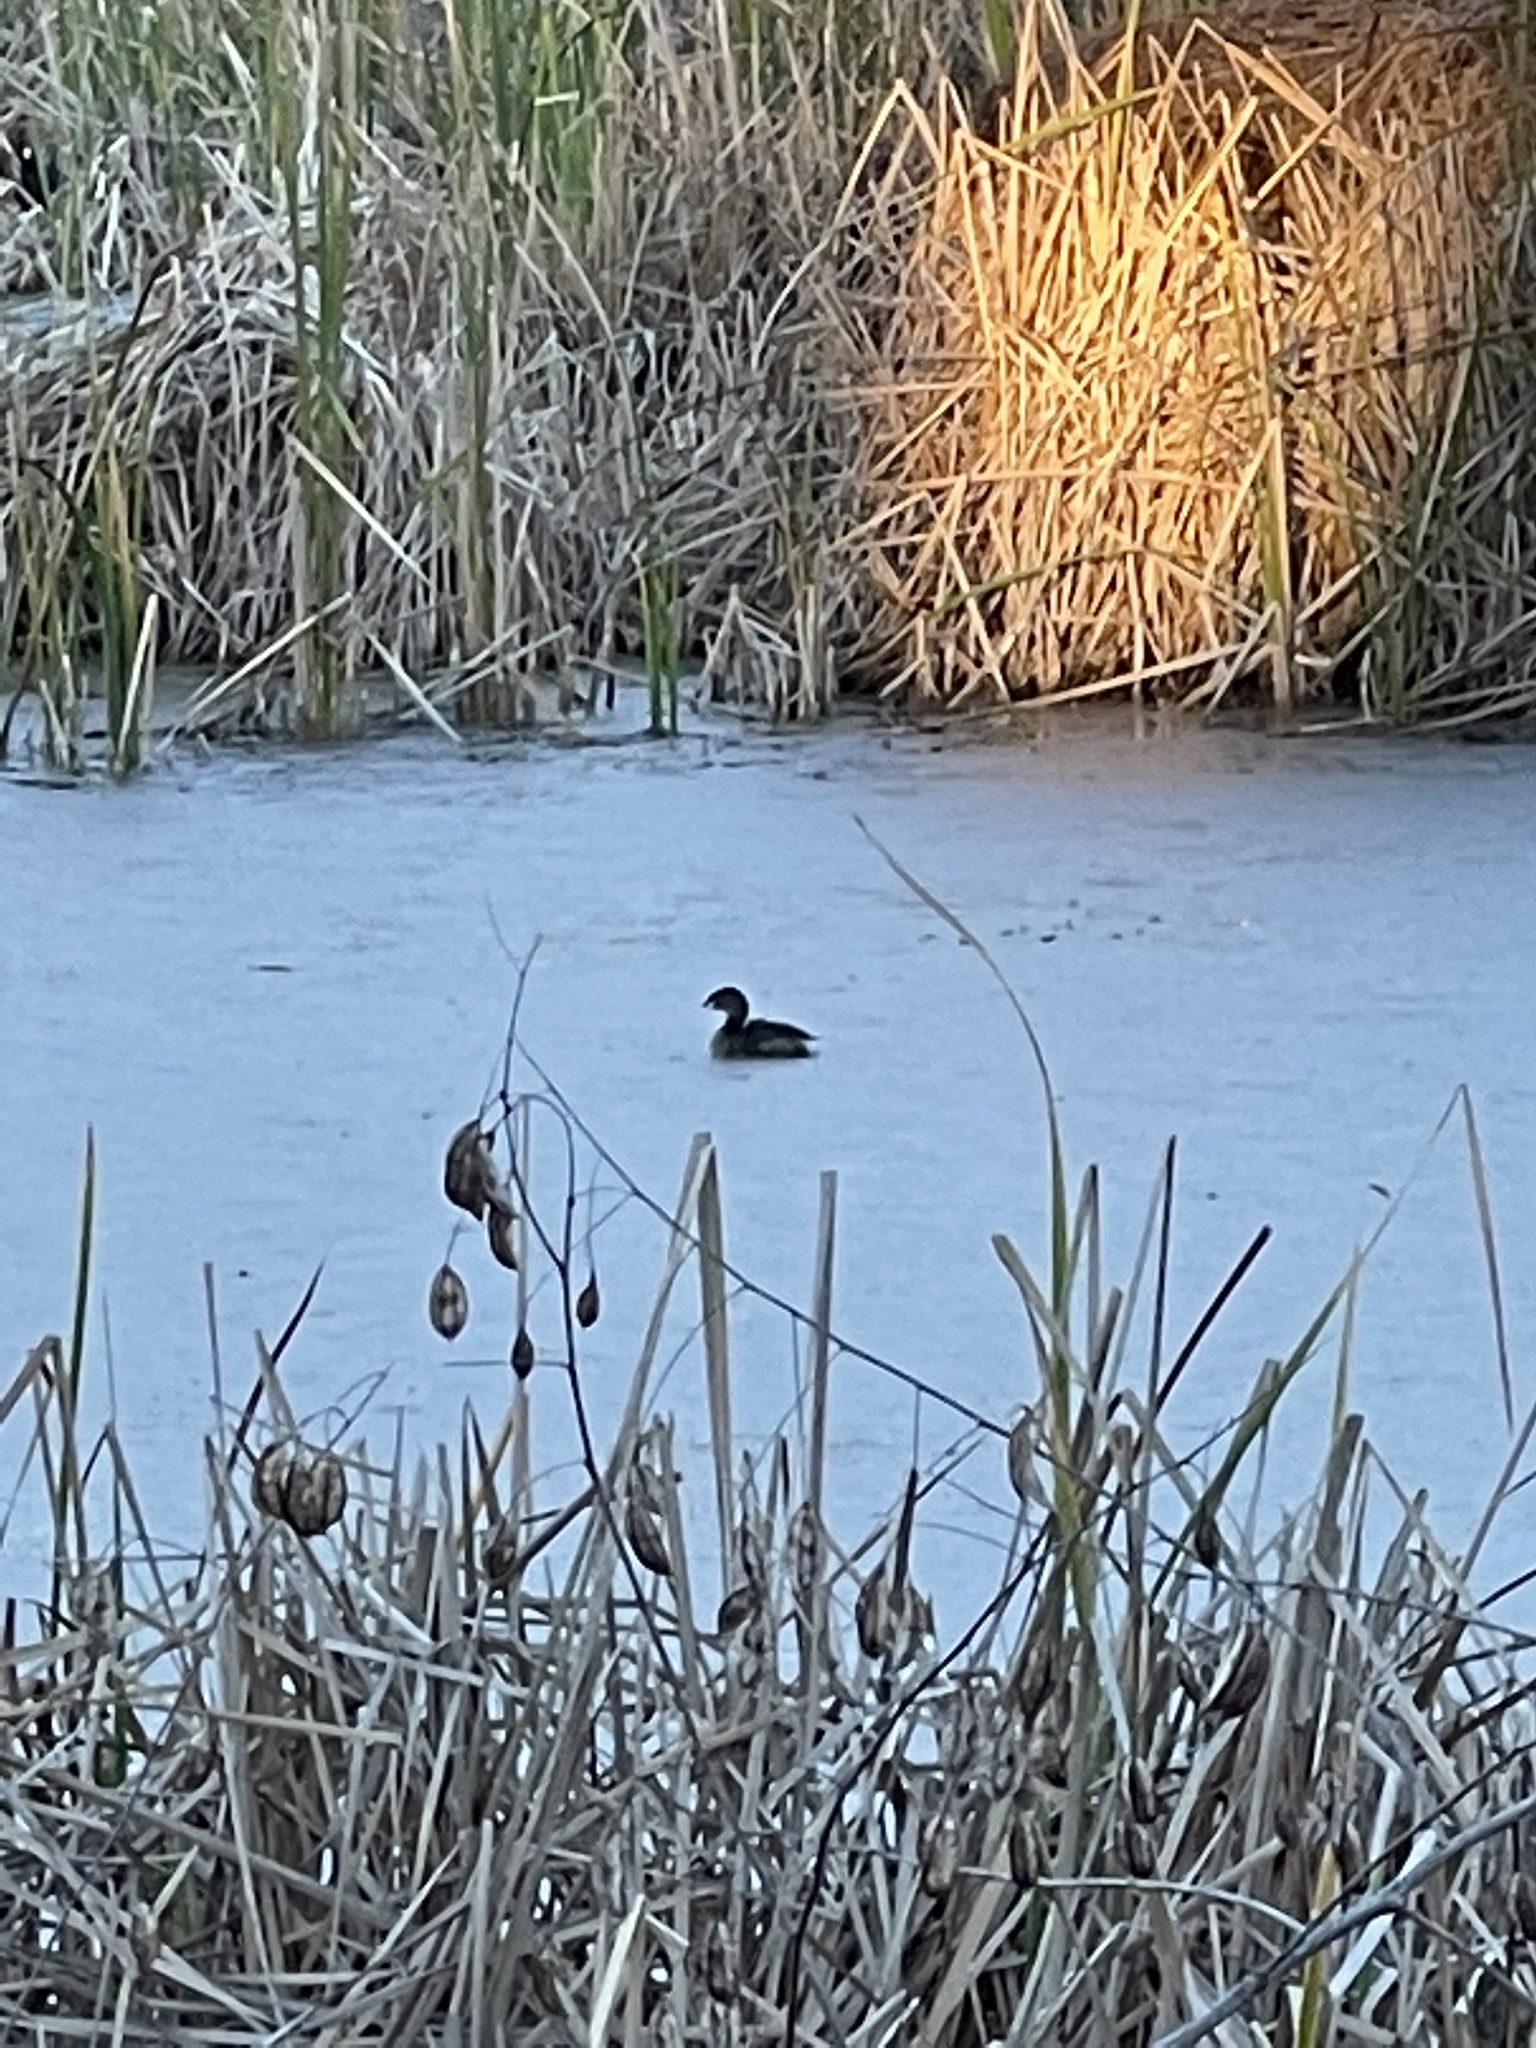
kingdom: Animalia
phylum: Chordata
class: Aves
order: Podicipediformes
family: Podicipedidae
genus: Podilymbus
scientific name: Podilymbus podiceps
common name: Pied-billed grebe
